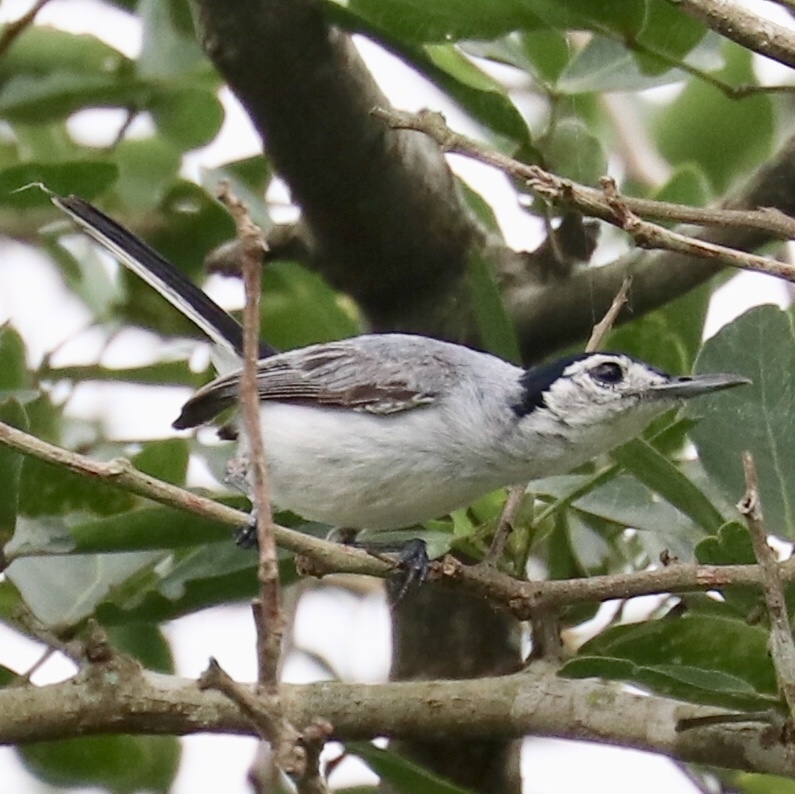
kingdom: Animalia
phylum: Chordata
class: Aves
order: Passeriformes
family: Polioptilidae
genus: Polioptila
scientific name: Polioptila plumbea
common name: Tropical gnatcatcher
